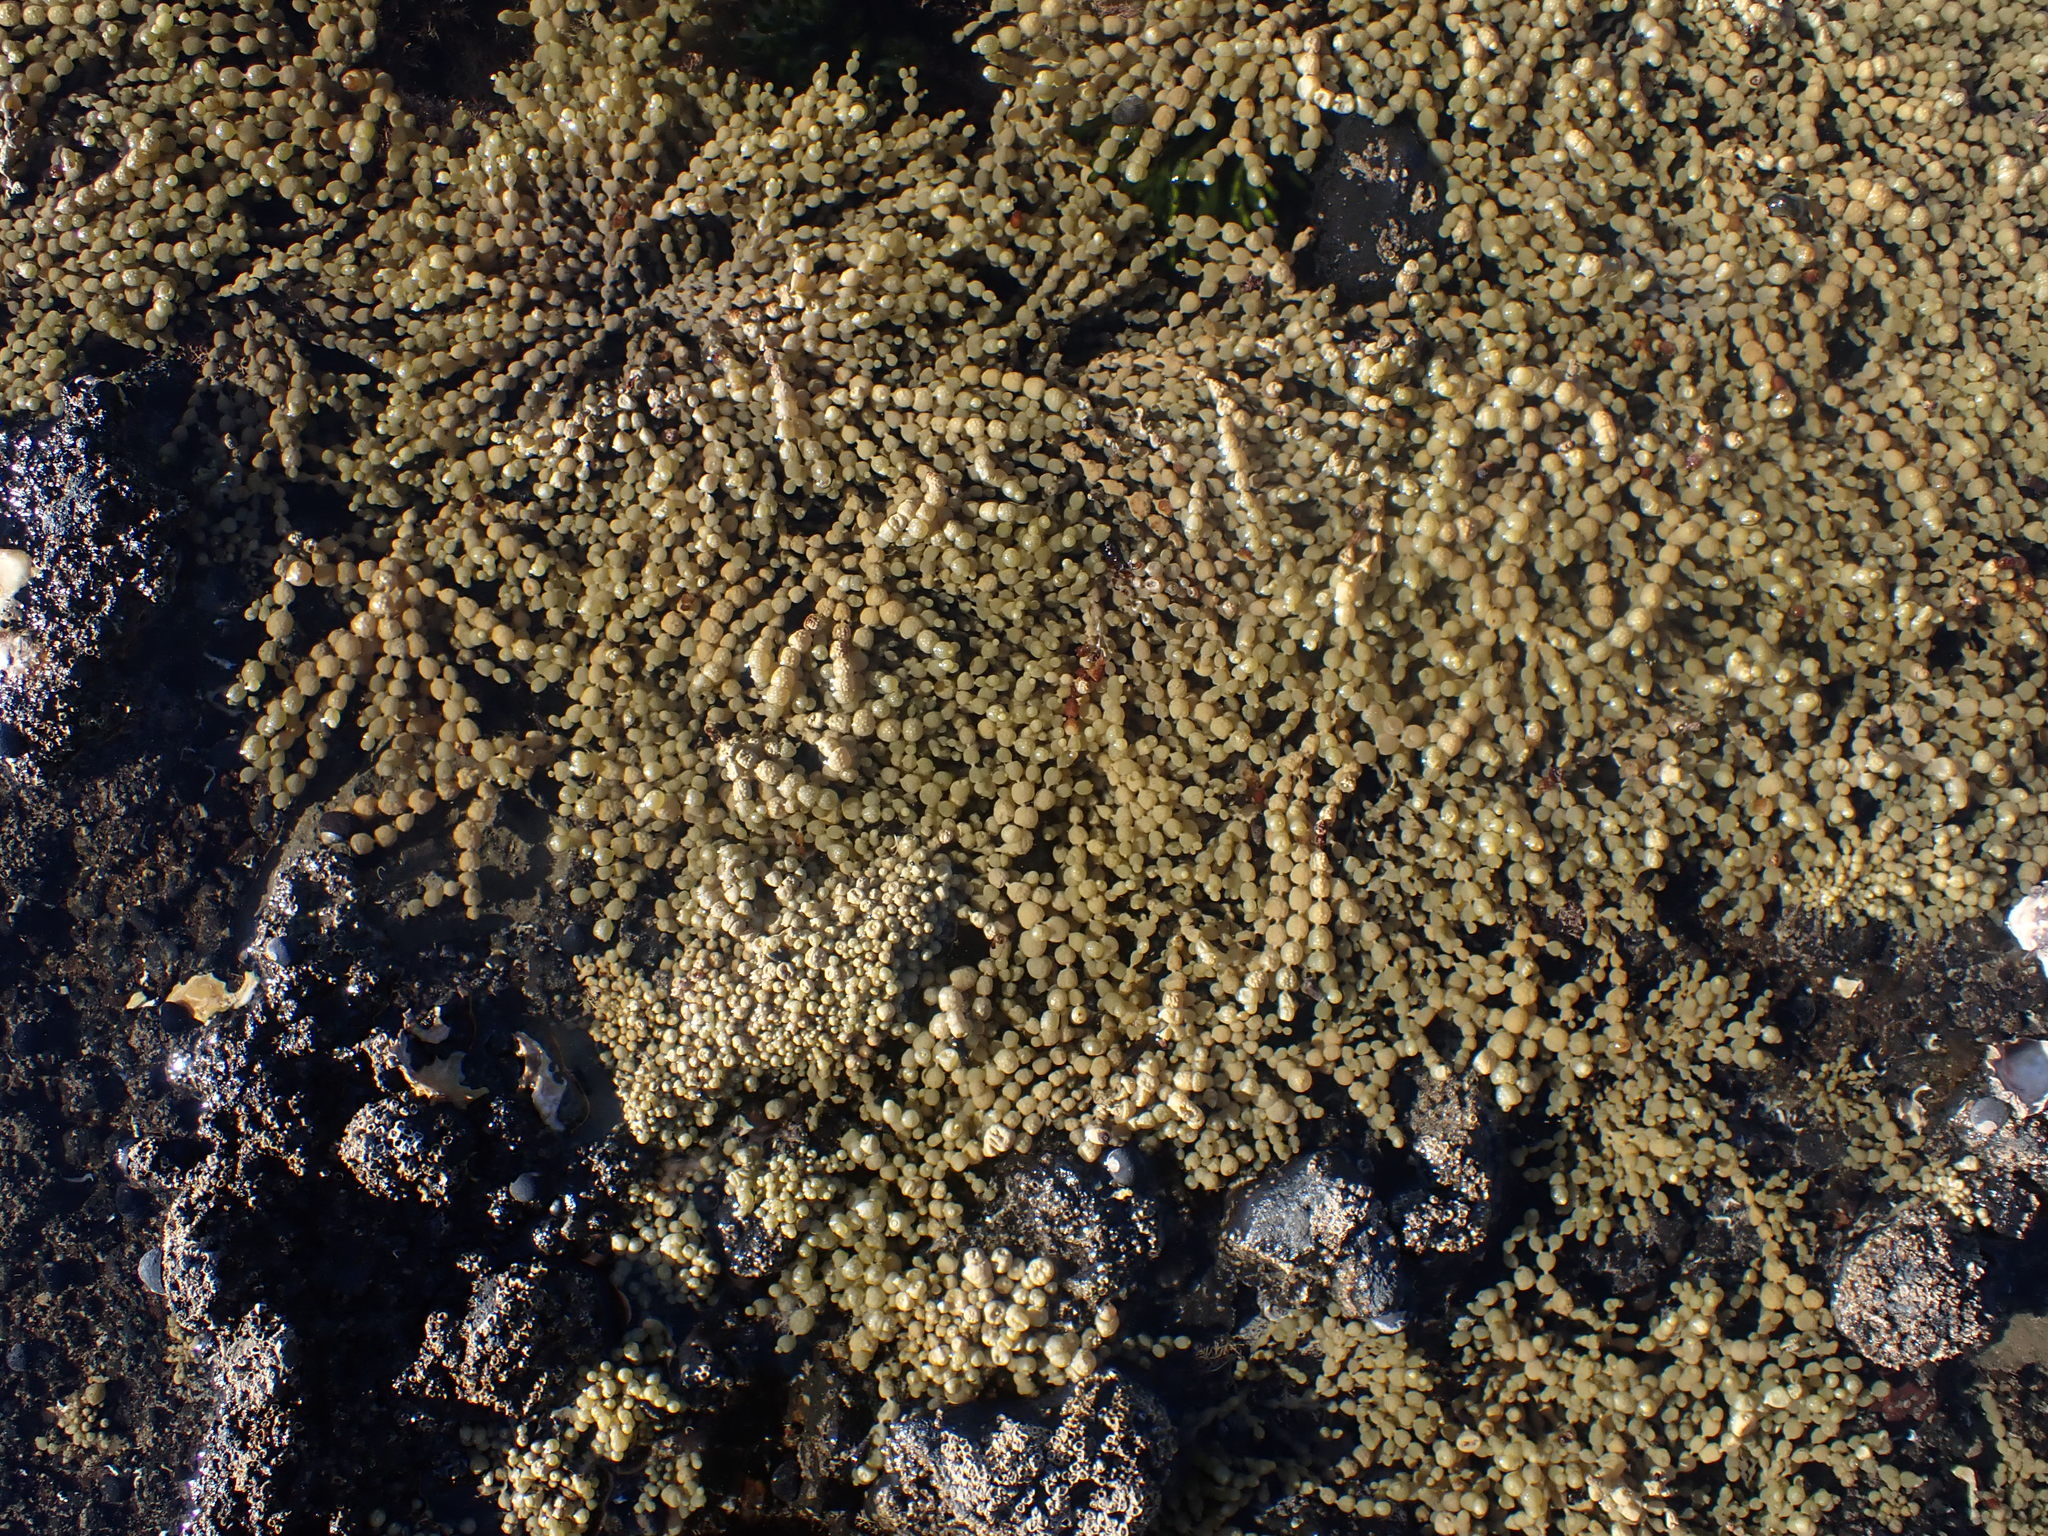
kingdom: Chromista
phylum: Ochrophyta
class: Phaeophyceae
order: Fucales
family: Hormosiraceae
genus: Hormosira
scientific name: Hormosira banksii
